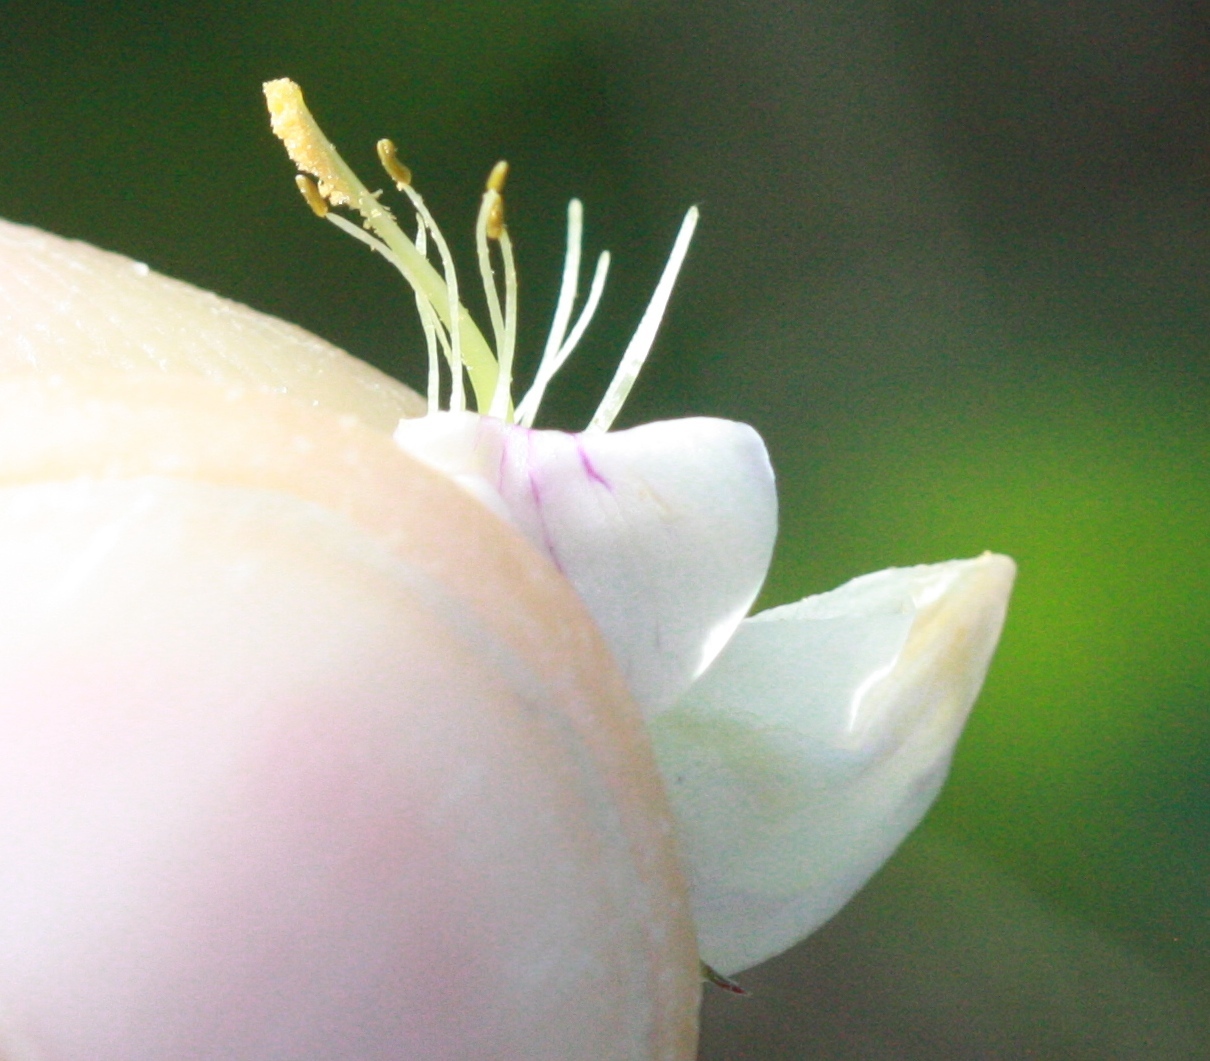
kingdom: Plantae
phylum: Tracheophyta
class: Magnoliopsida
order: Fabales
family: Fabaceae
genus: Lathyrus
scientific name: Lathyrus vestitus
